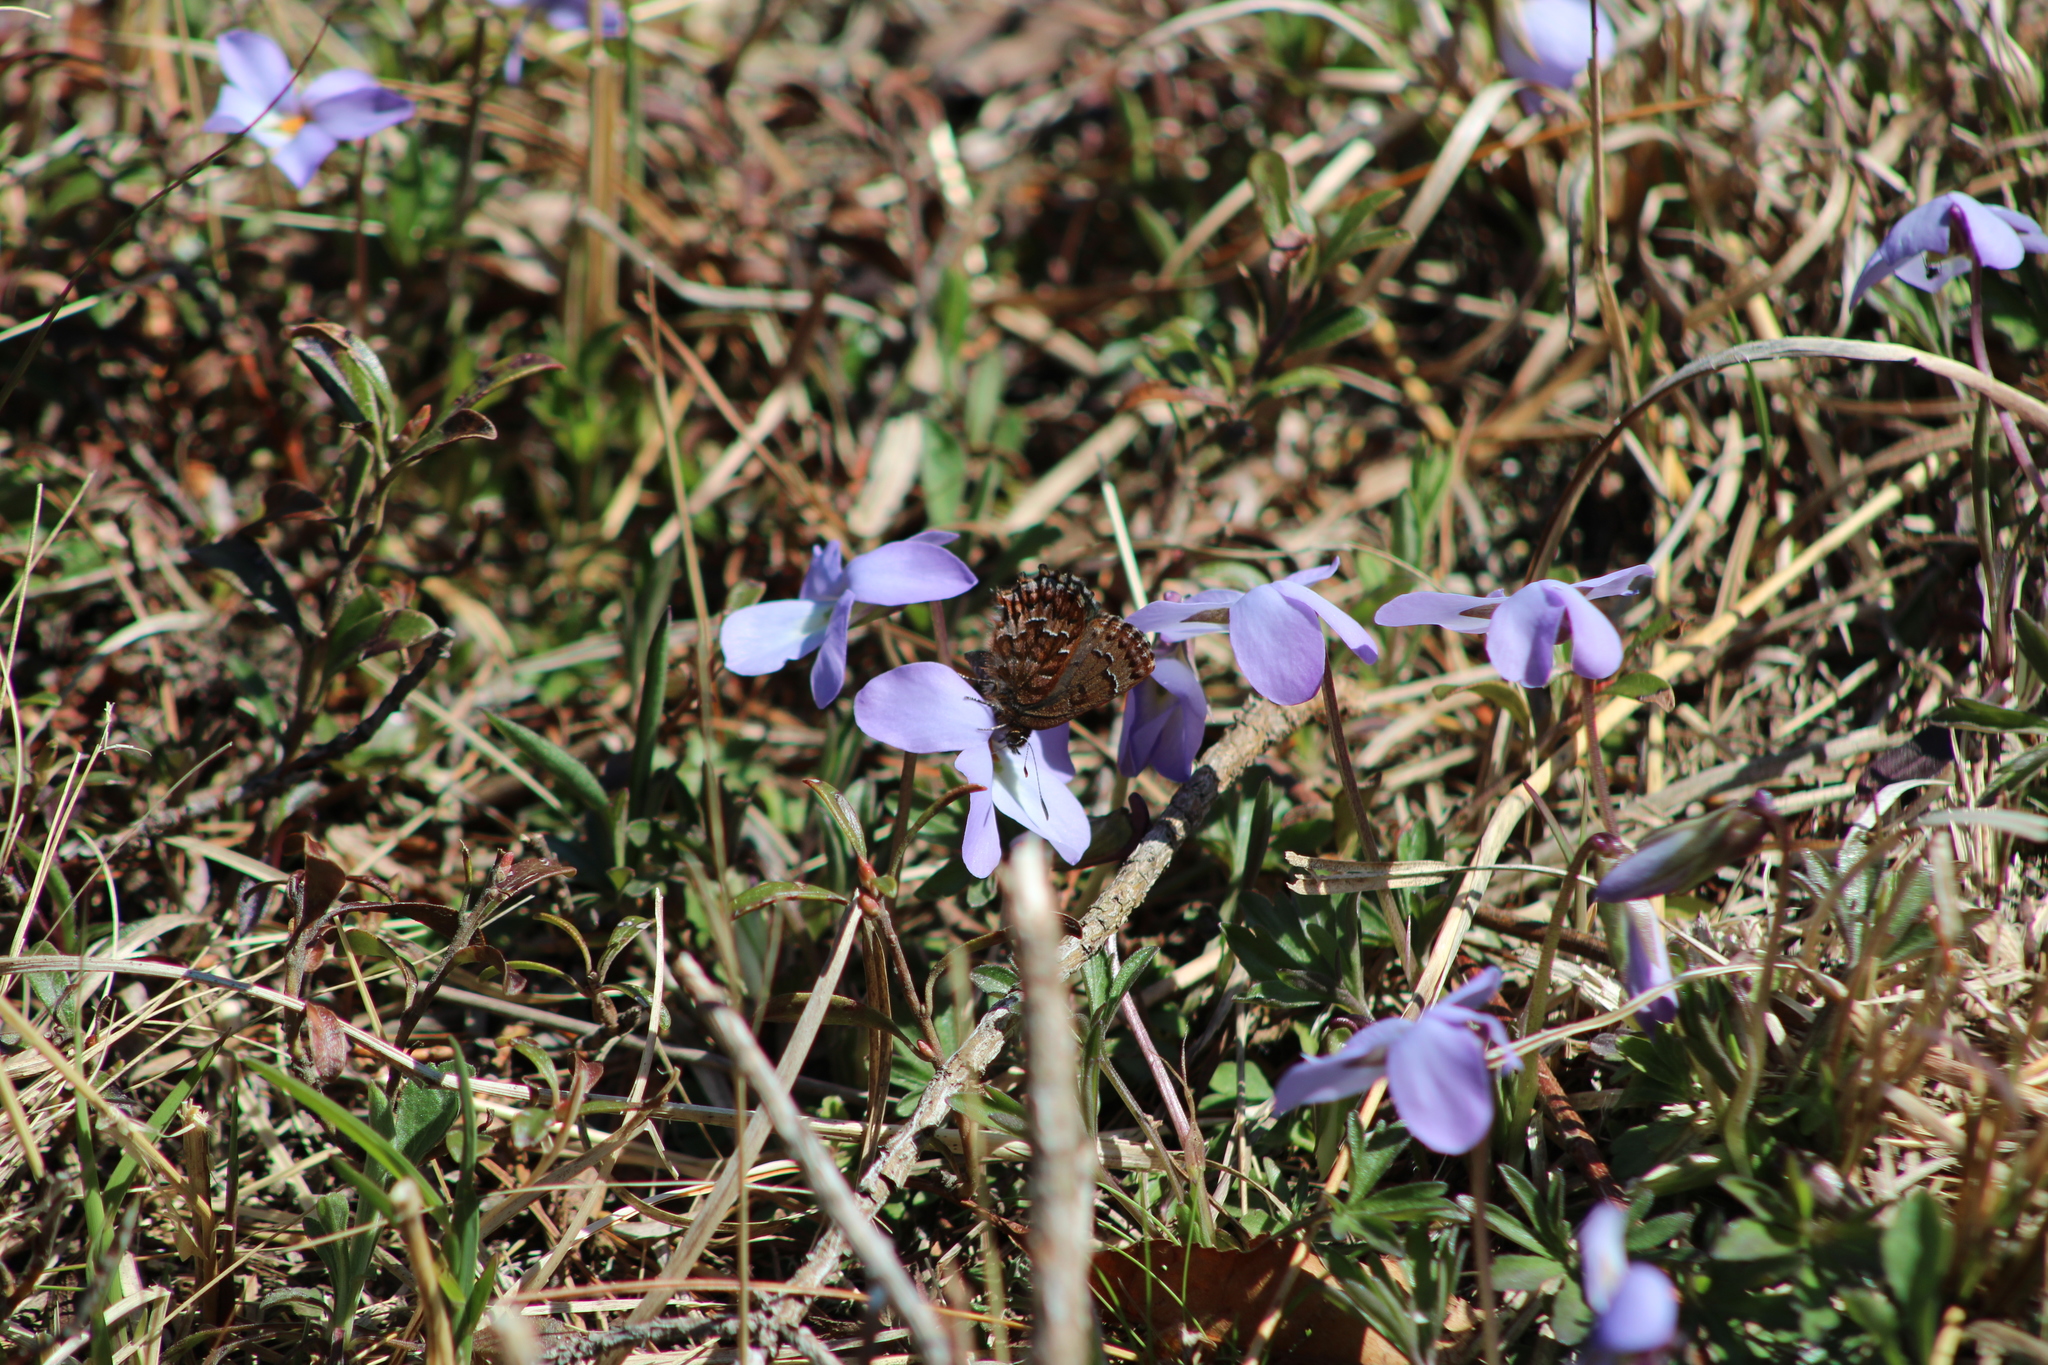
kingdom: Animalia
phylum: Arthropoda
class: Insecta
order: Lepidoptera
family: Lycaenidae
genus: Incisalia
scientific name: Incisalia niphon
